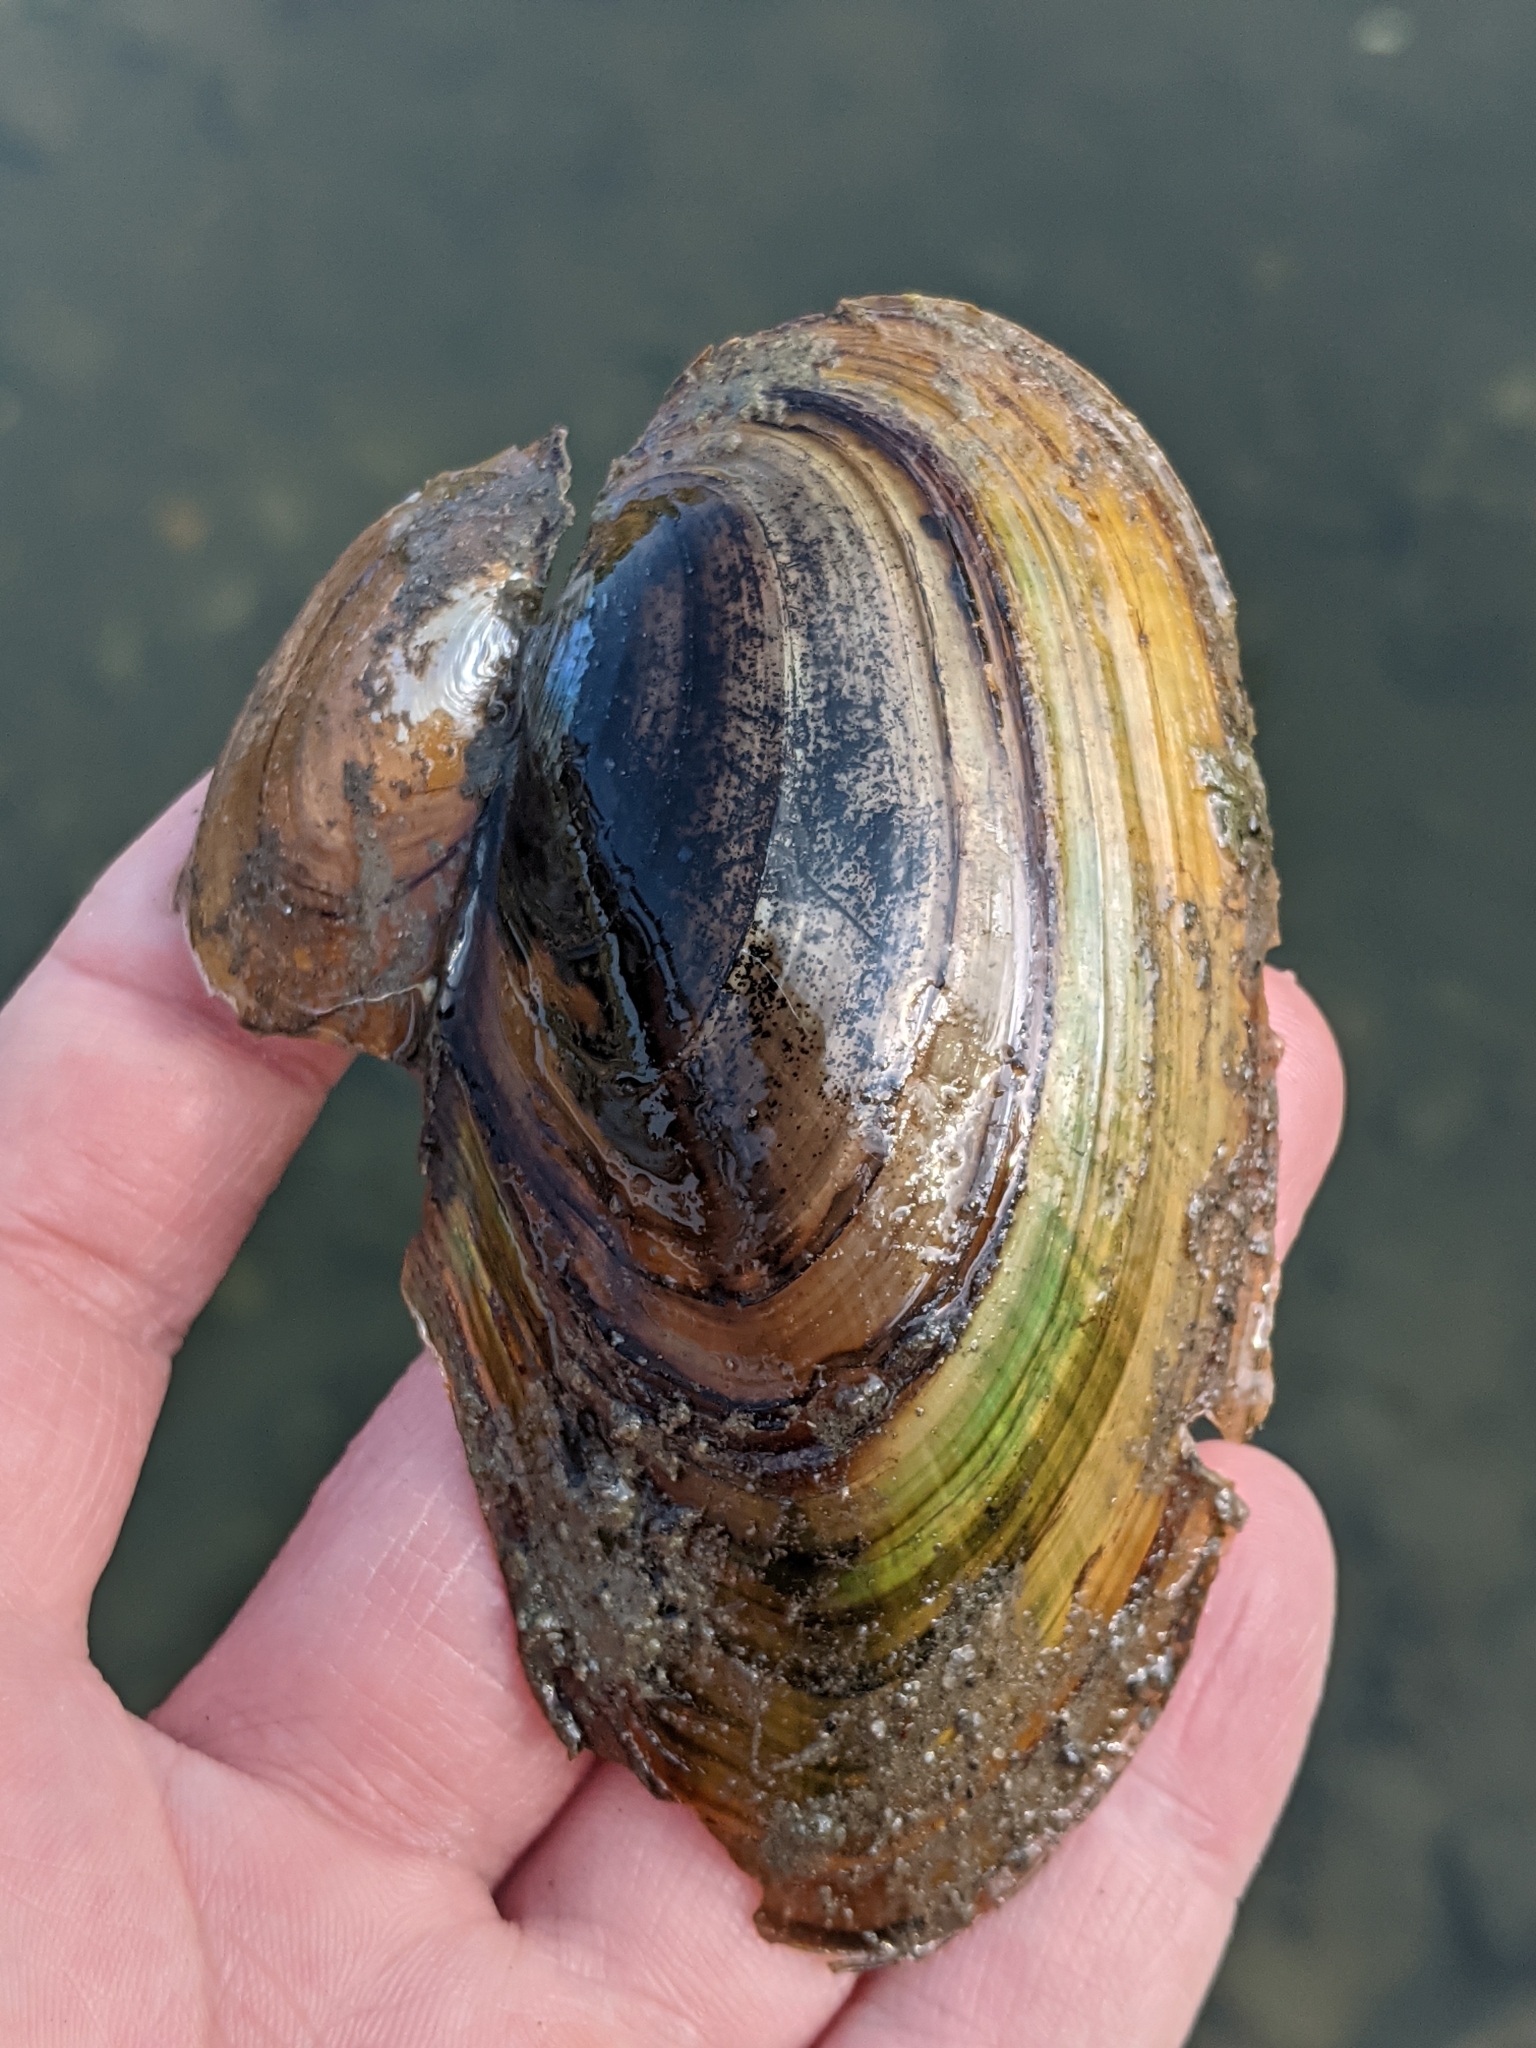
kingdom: Animalia
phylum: Mollusca
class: Bivalvia
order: Unionida
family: Unionidae
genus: Pyganodon
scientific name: Pyganodon cataracta
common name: Eastern floater
